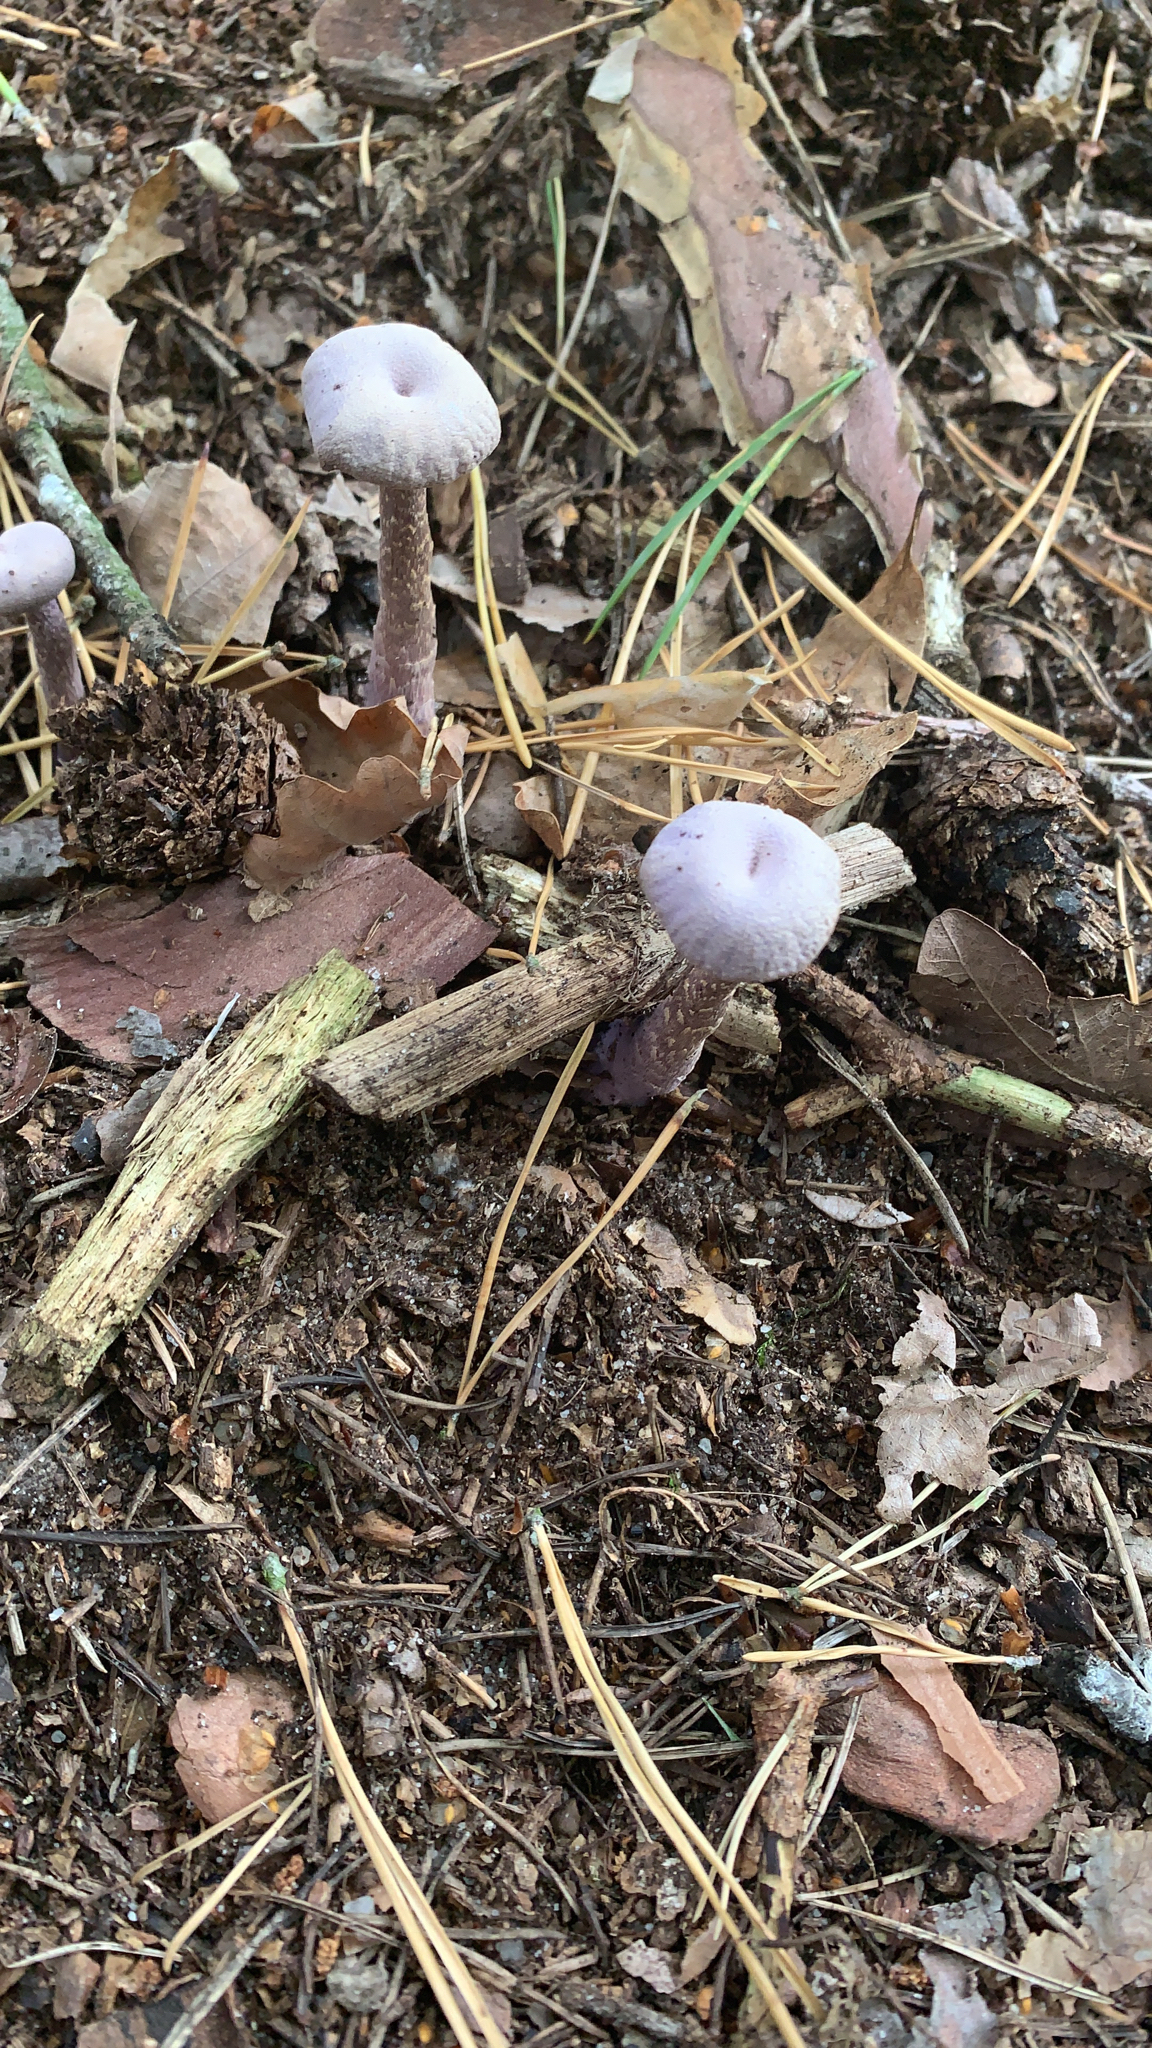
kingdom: Fungi
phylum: Basidiomycota
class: Agaricomycetes
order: Agaricales
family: Hydnangiaceae
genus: Laccaria
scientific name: Laccaria amethystina
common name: Amethyst deceiver
